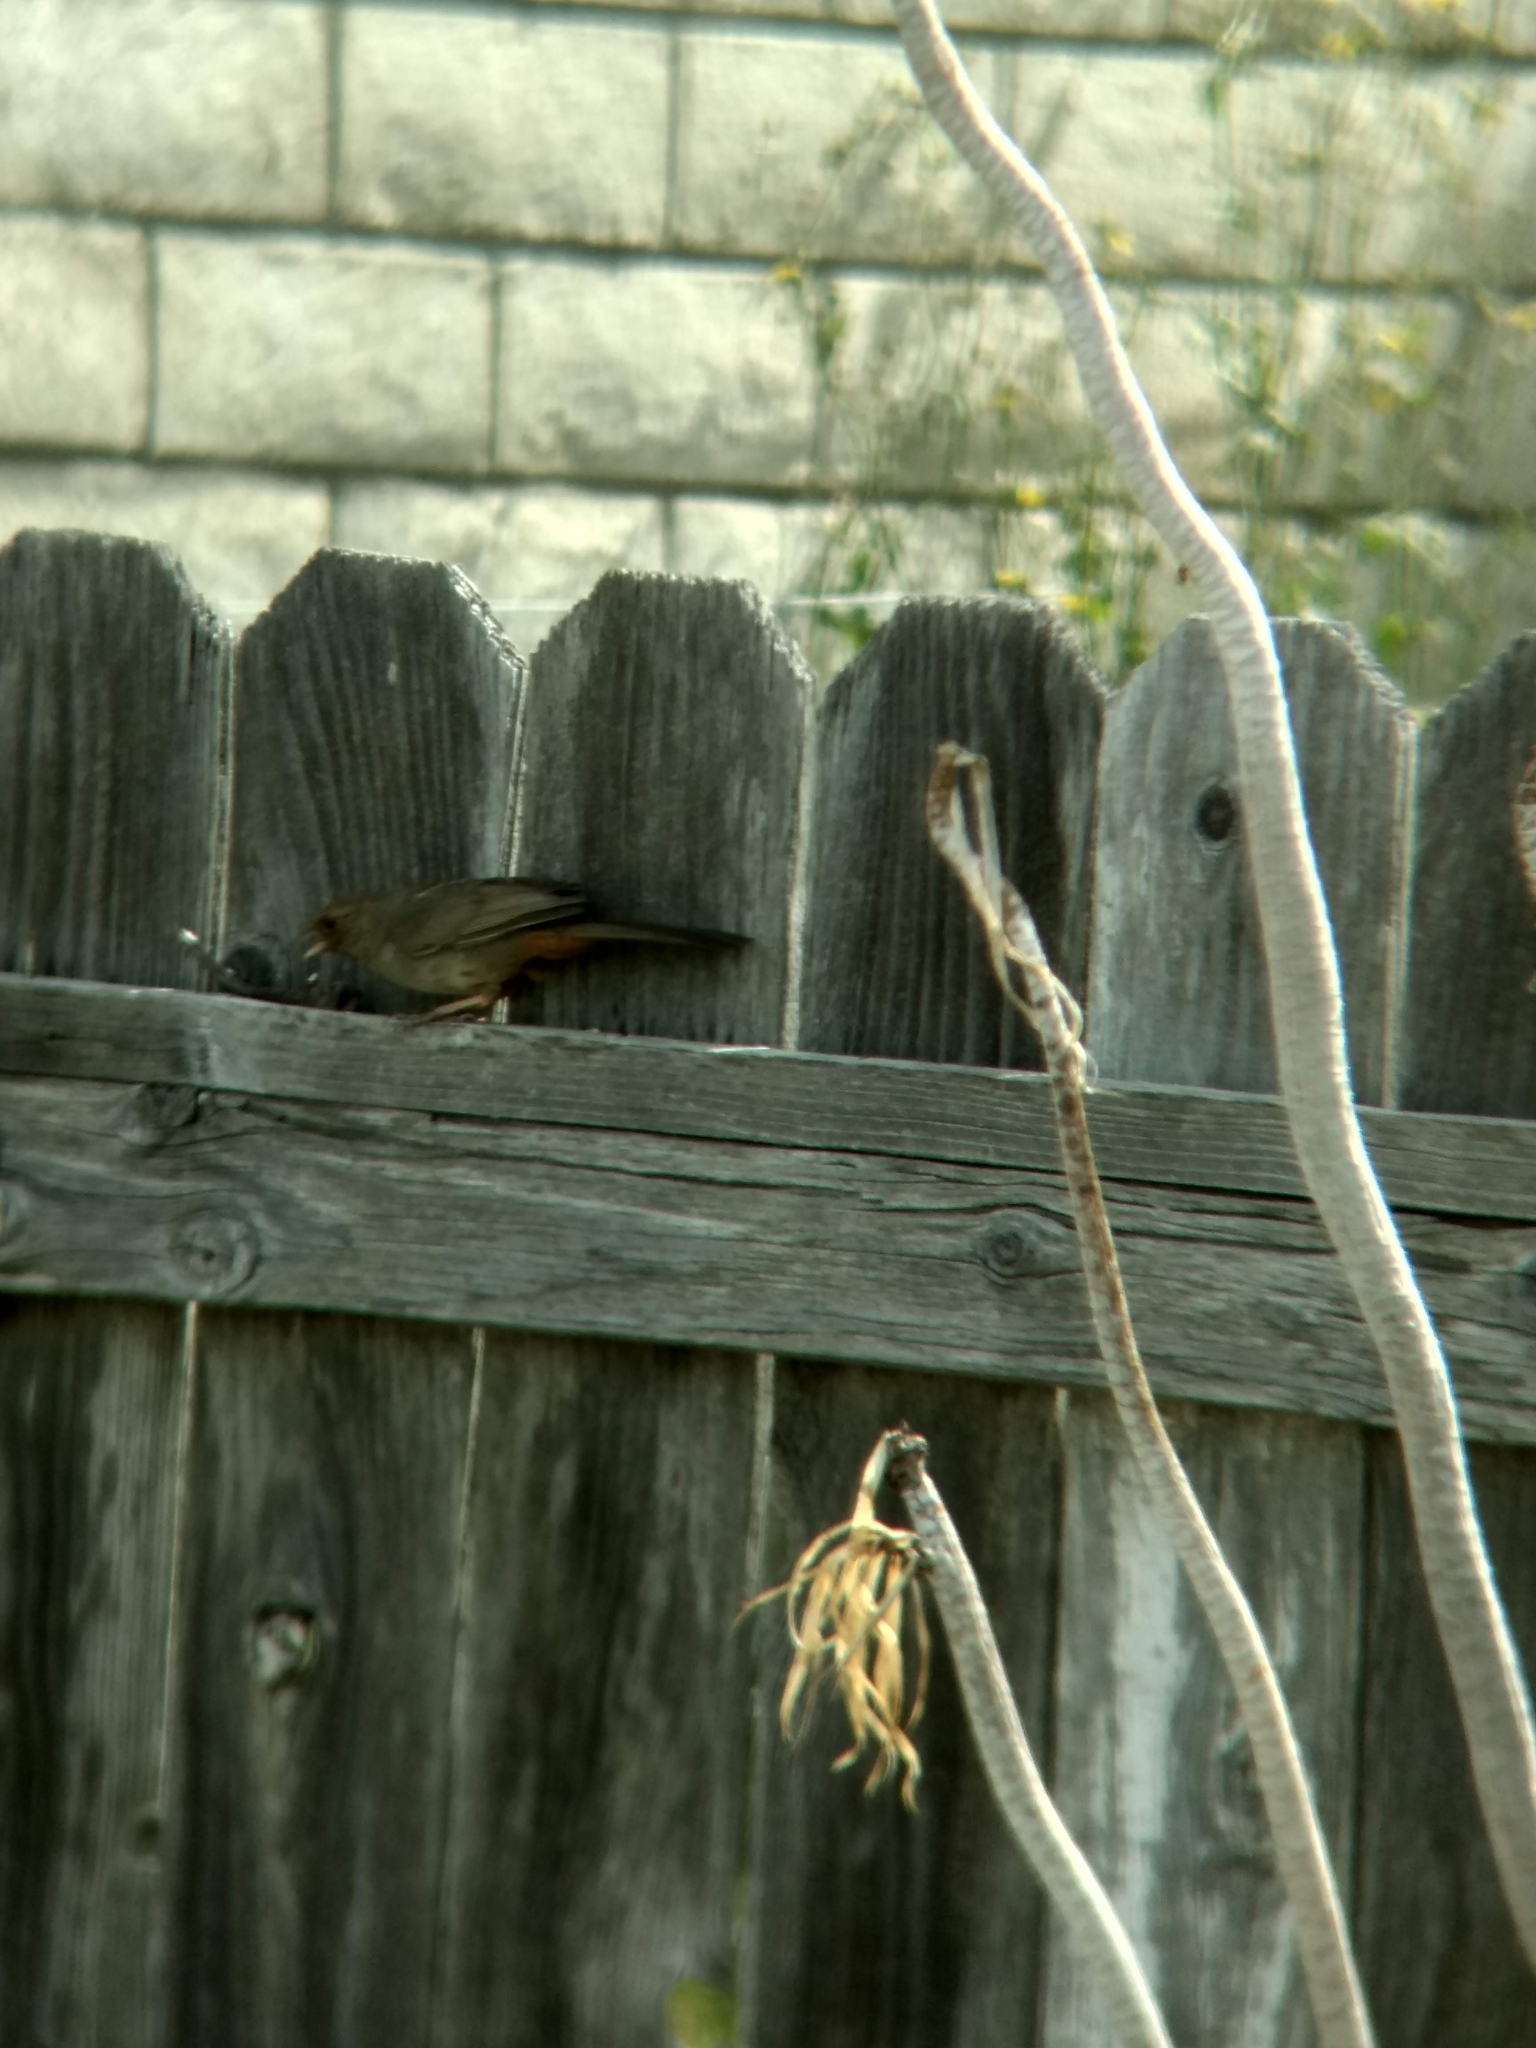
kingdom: Animalia
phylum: Chordata
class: Aves
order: Passeriformes
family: Passerellidae
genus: Melozone
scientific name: Melozone crissalis
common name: California towhee
